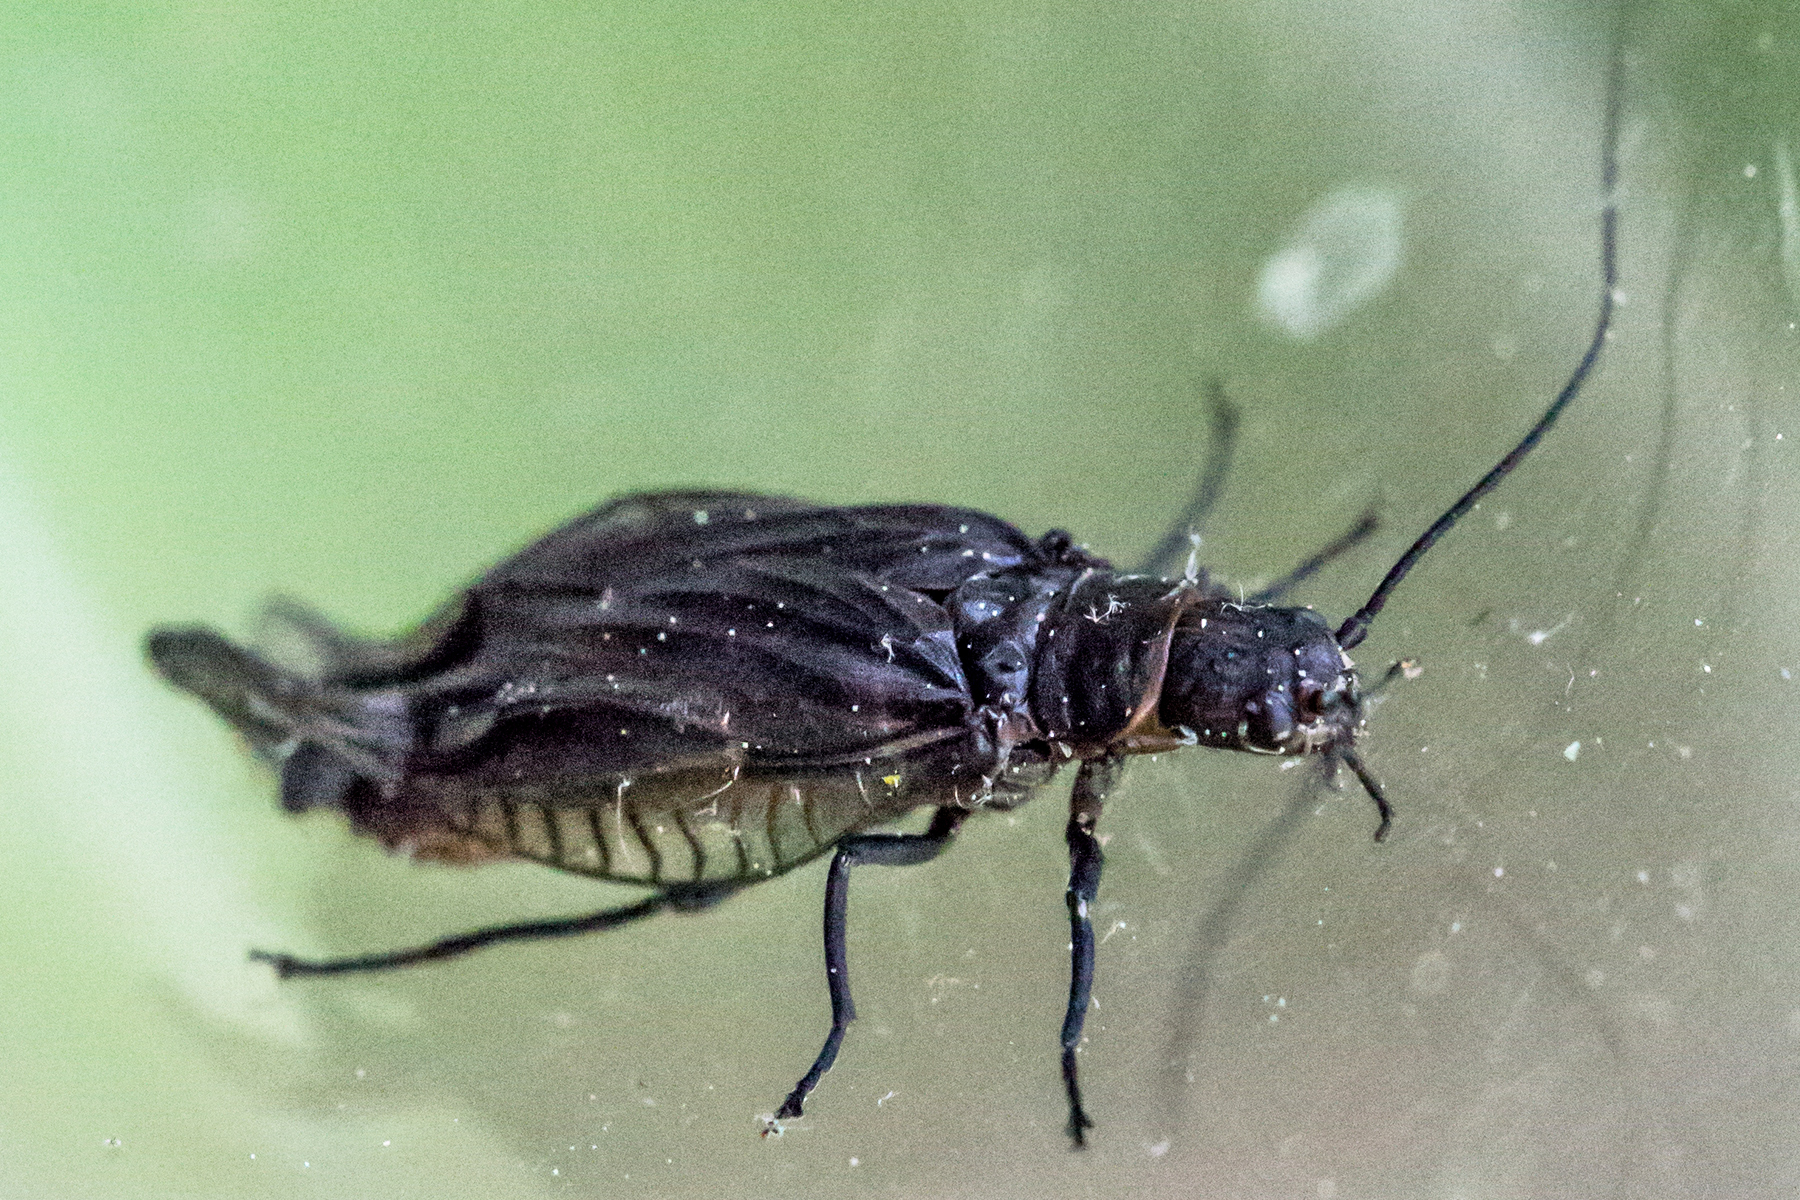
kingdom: Animalia
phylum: Arthropoda
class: Insecta
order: Megaloptera
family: Sialidae
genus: Sialis
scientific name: Sialis
